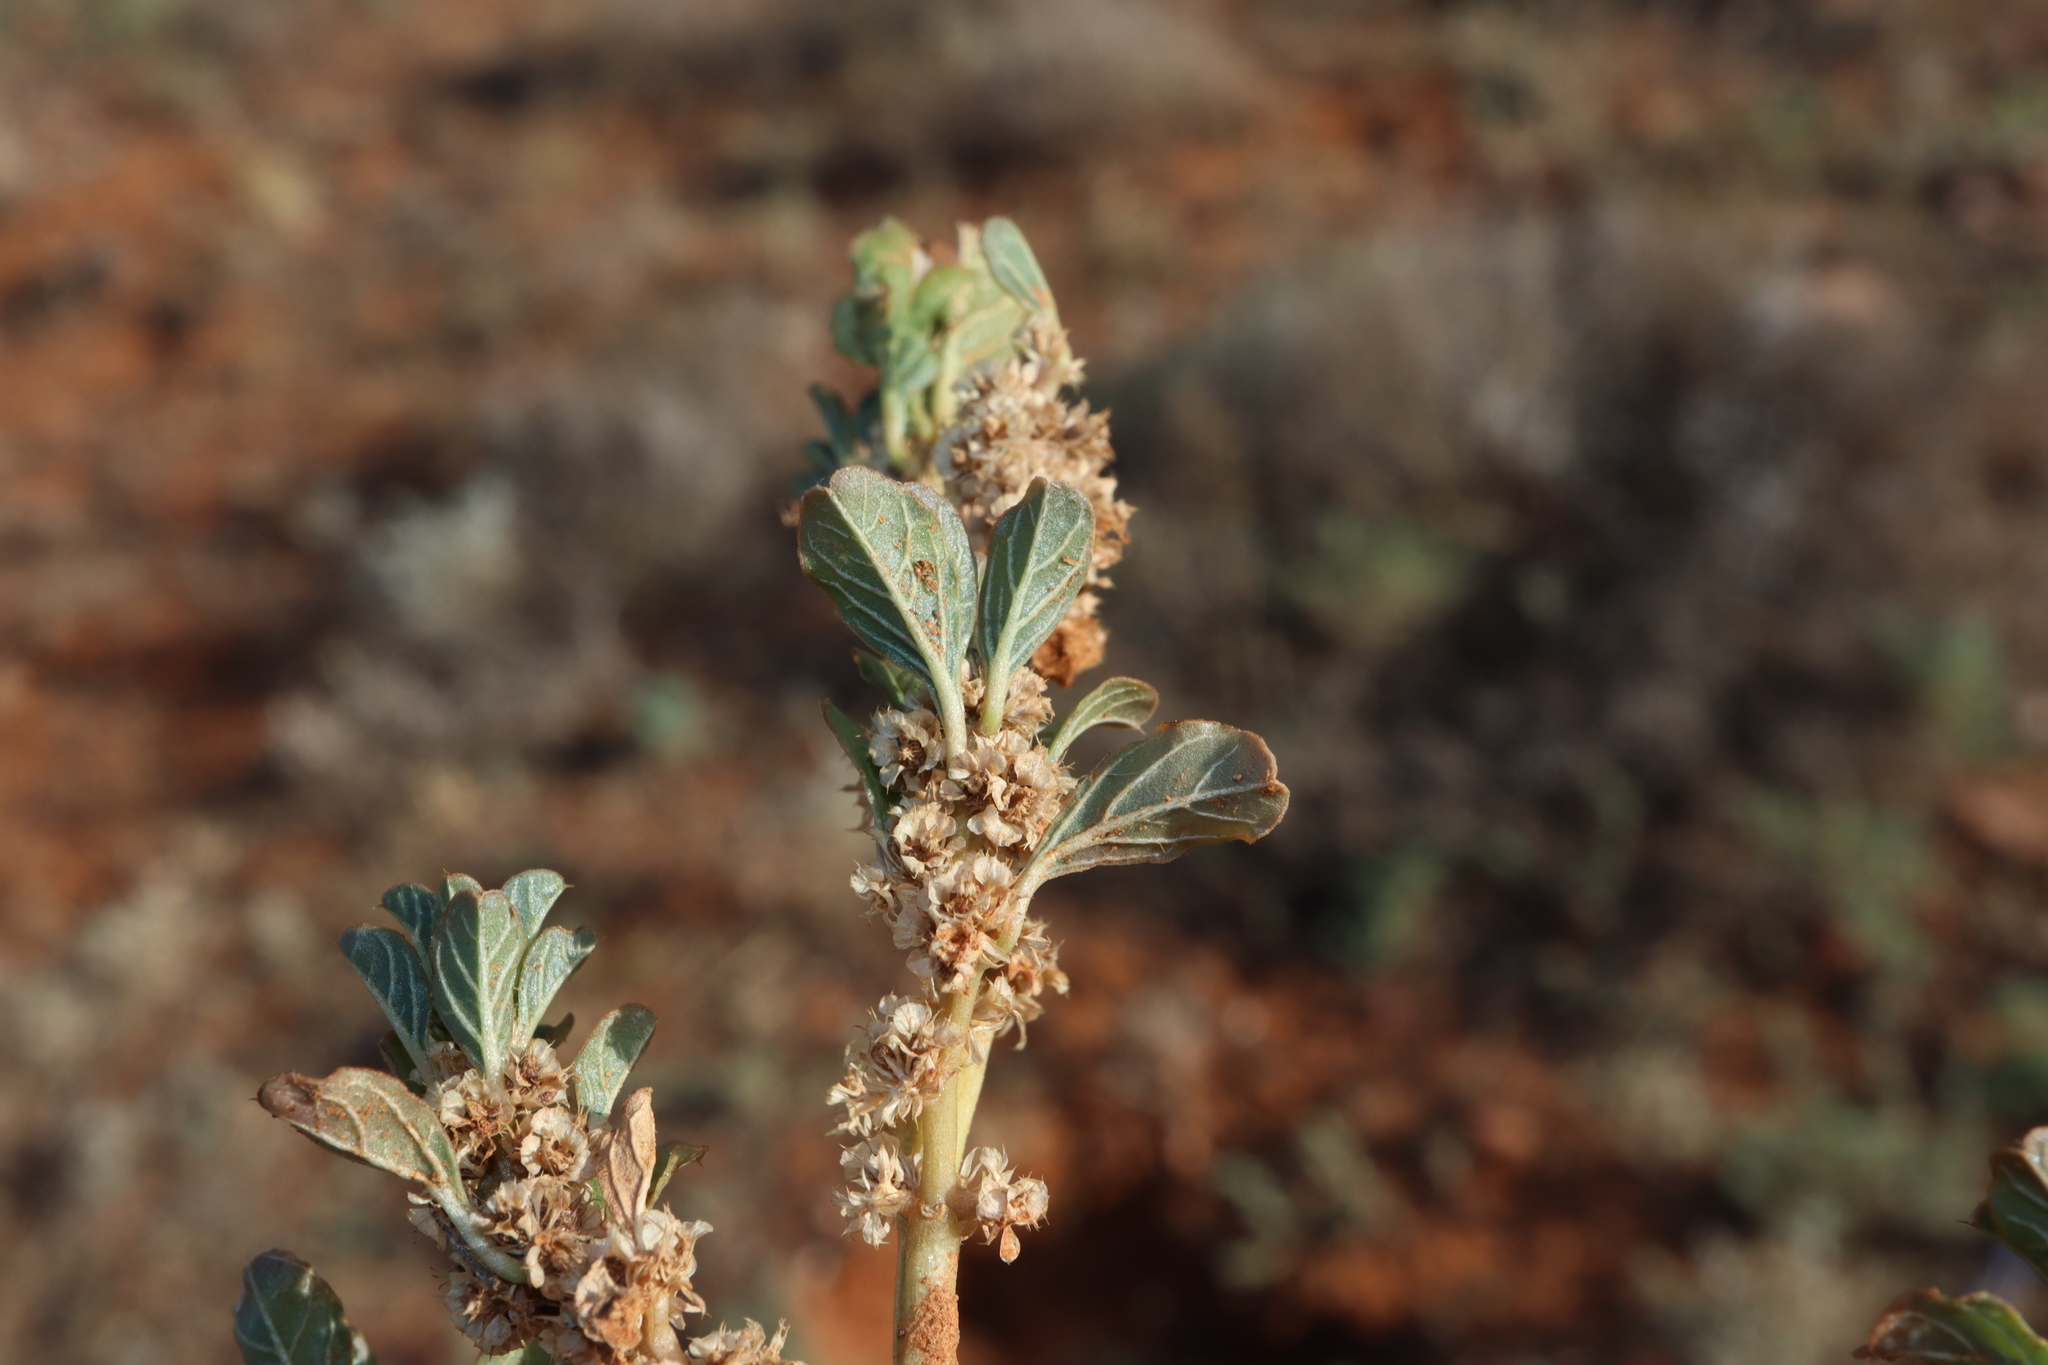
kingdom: Plantae
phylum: Tracheophyta
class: Magnoliopsida
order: Caryophyllales
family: Amaranthaceae
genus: Amaranthus
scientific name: Amaranthus mitchellii
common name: Mitchell's amaranth
